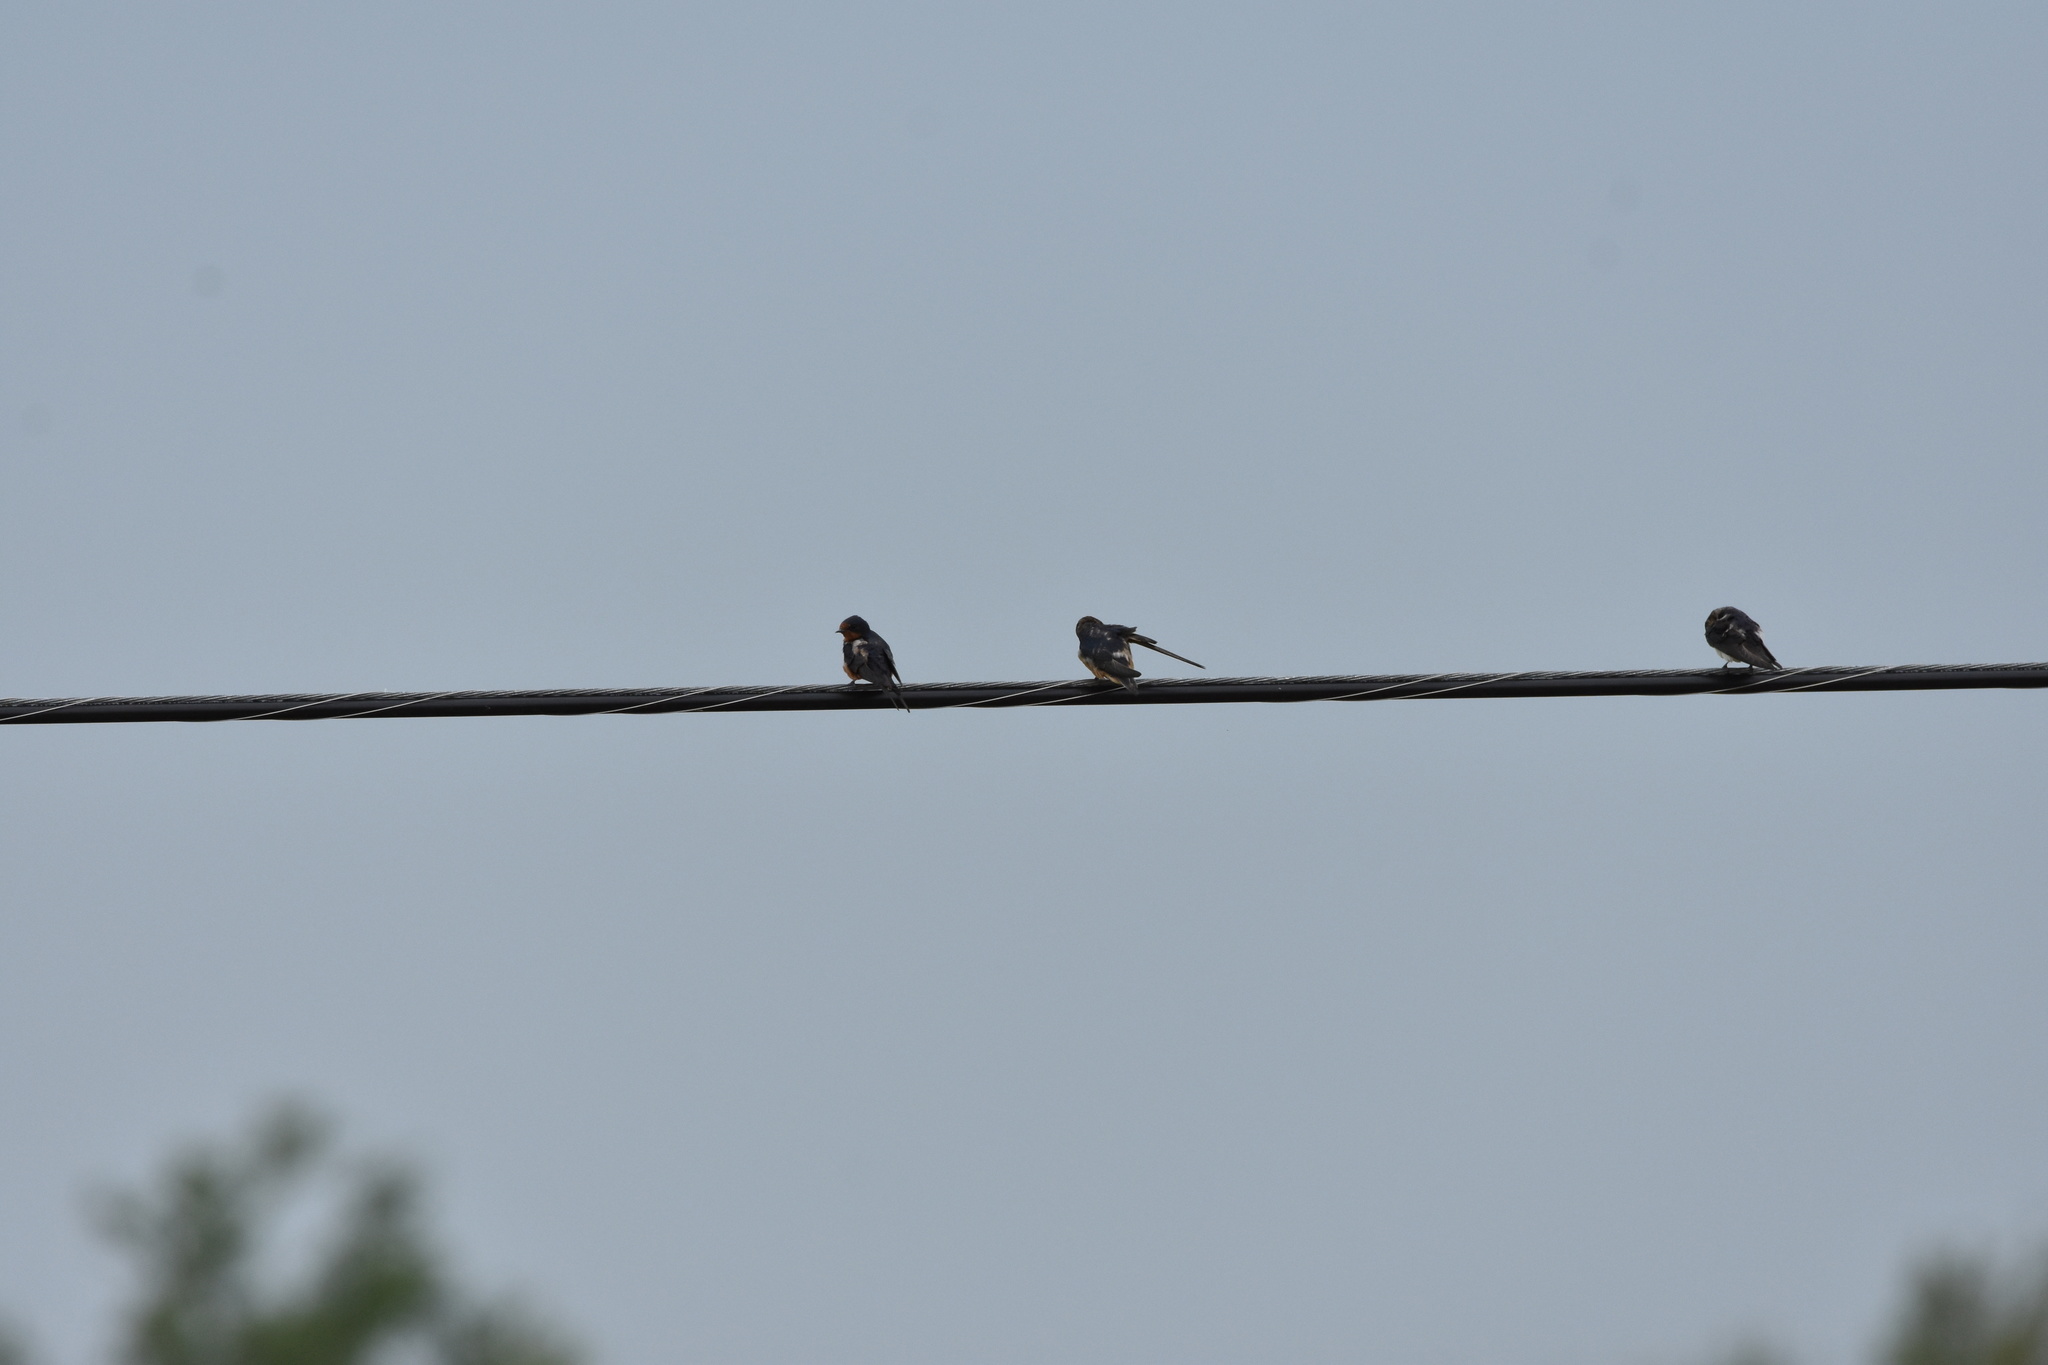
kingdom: Animalia
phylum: Chordata
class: Aves
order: Passeriformes
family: Hirundinidae
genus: Hirundo
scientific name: Hirundo rustica
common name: Barn swallow
